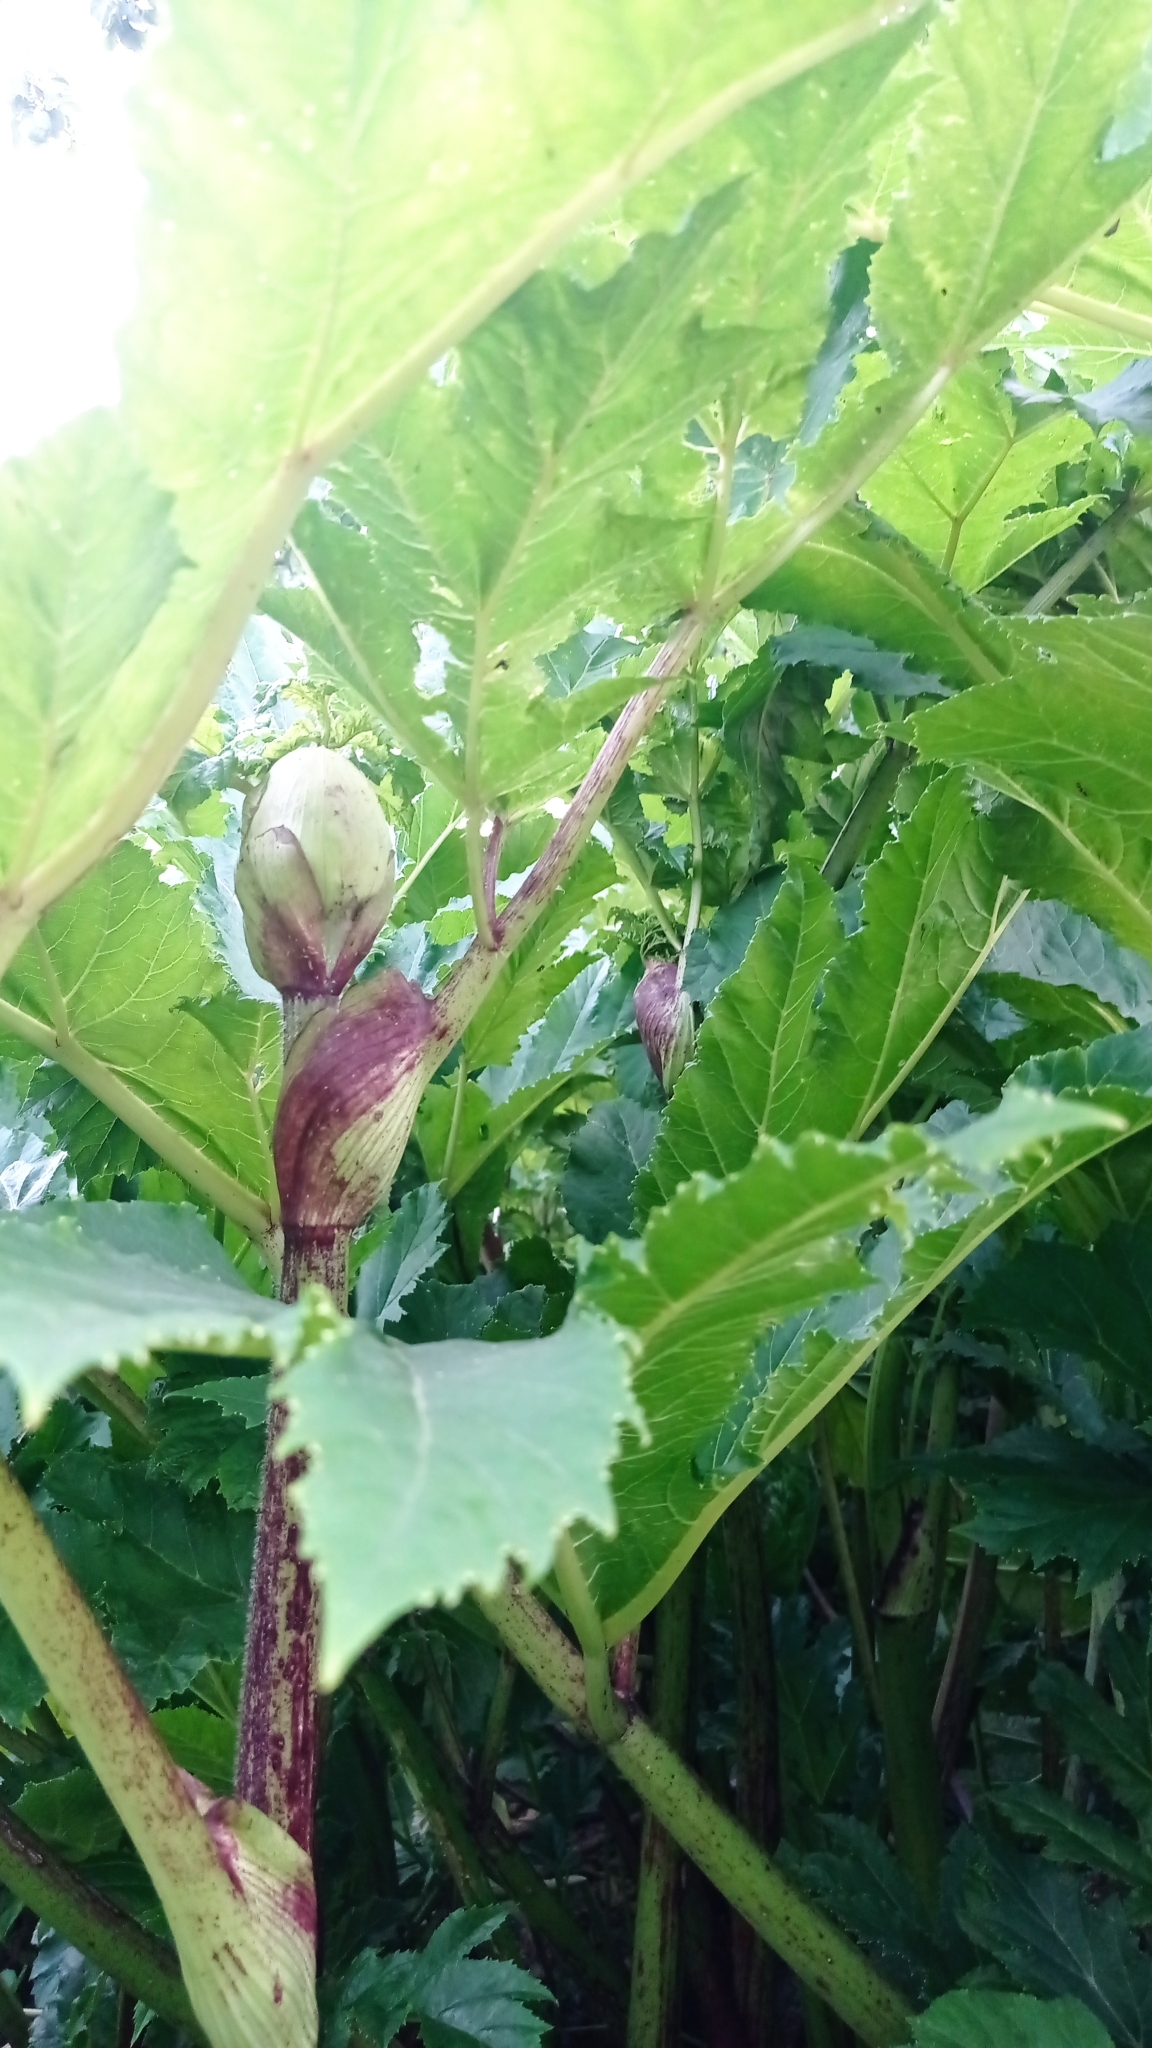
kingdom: Plantae
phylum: Tracheophyta
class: Magnoliopsida
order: Apiales
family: Apiaceae
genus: Heracleum
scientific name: Heracleum sosnowskyi
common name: Sosnowsky's hogweed
